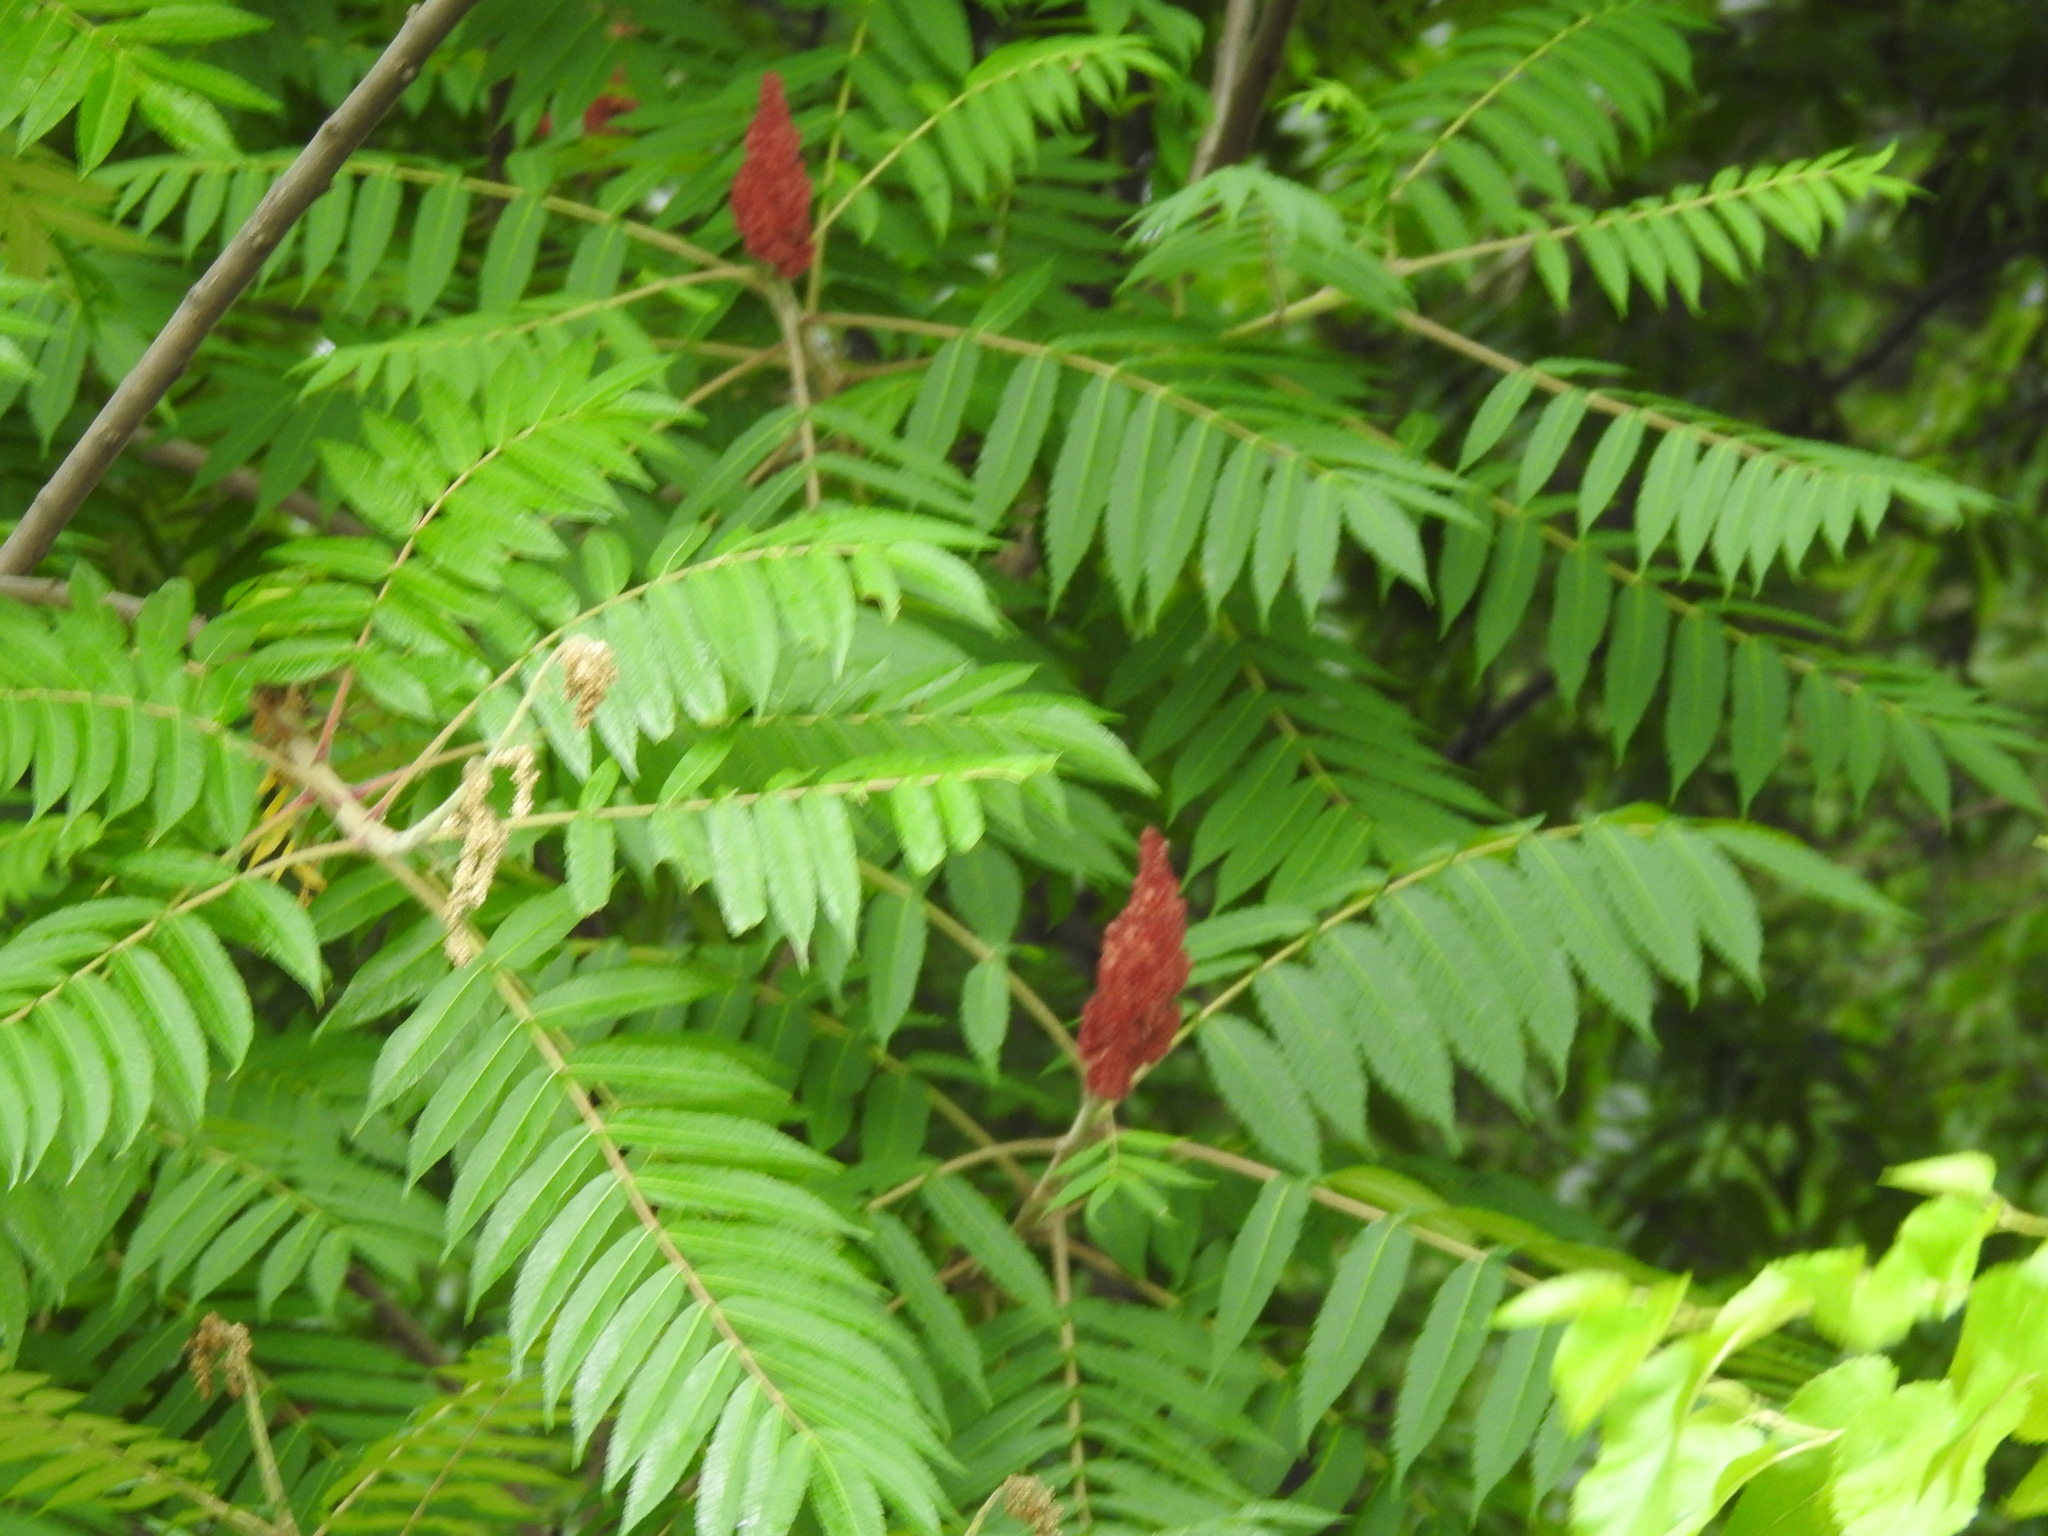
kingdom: Plantae
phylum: Tracheophyta
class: Magnoliopsida
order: Sapindales
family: Anacardiaceae
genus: Rhus
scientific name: Rhus typhina
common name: Staghorn sumac
